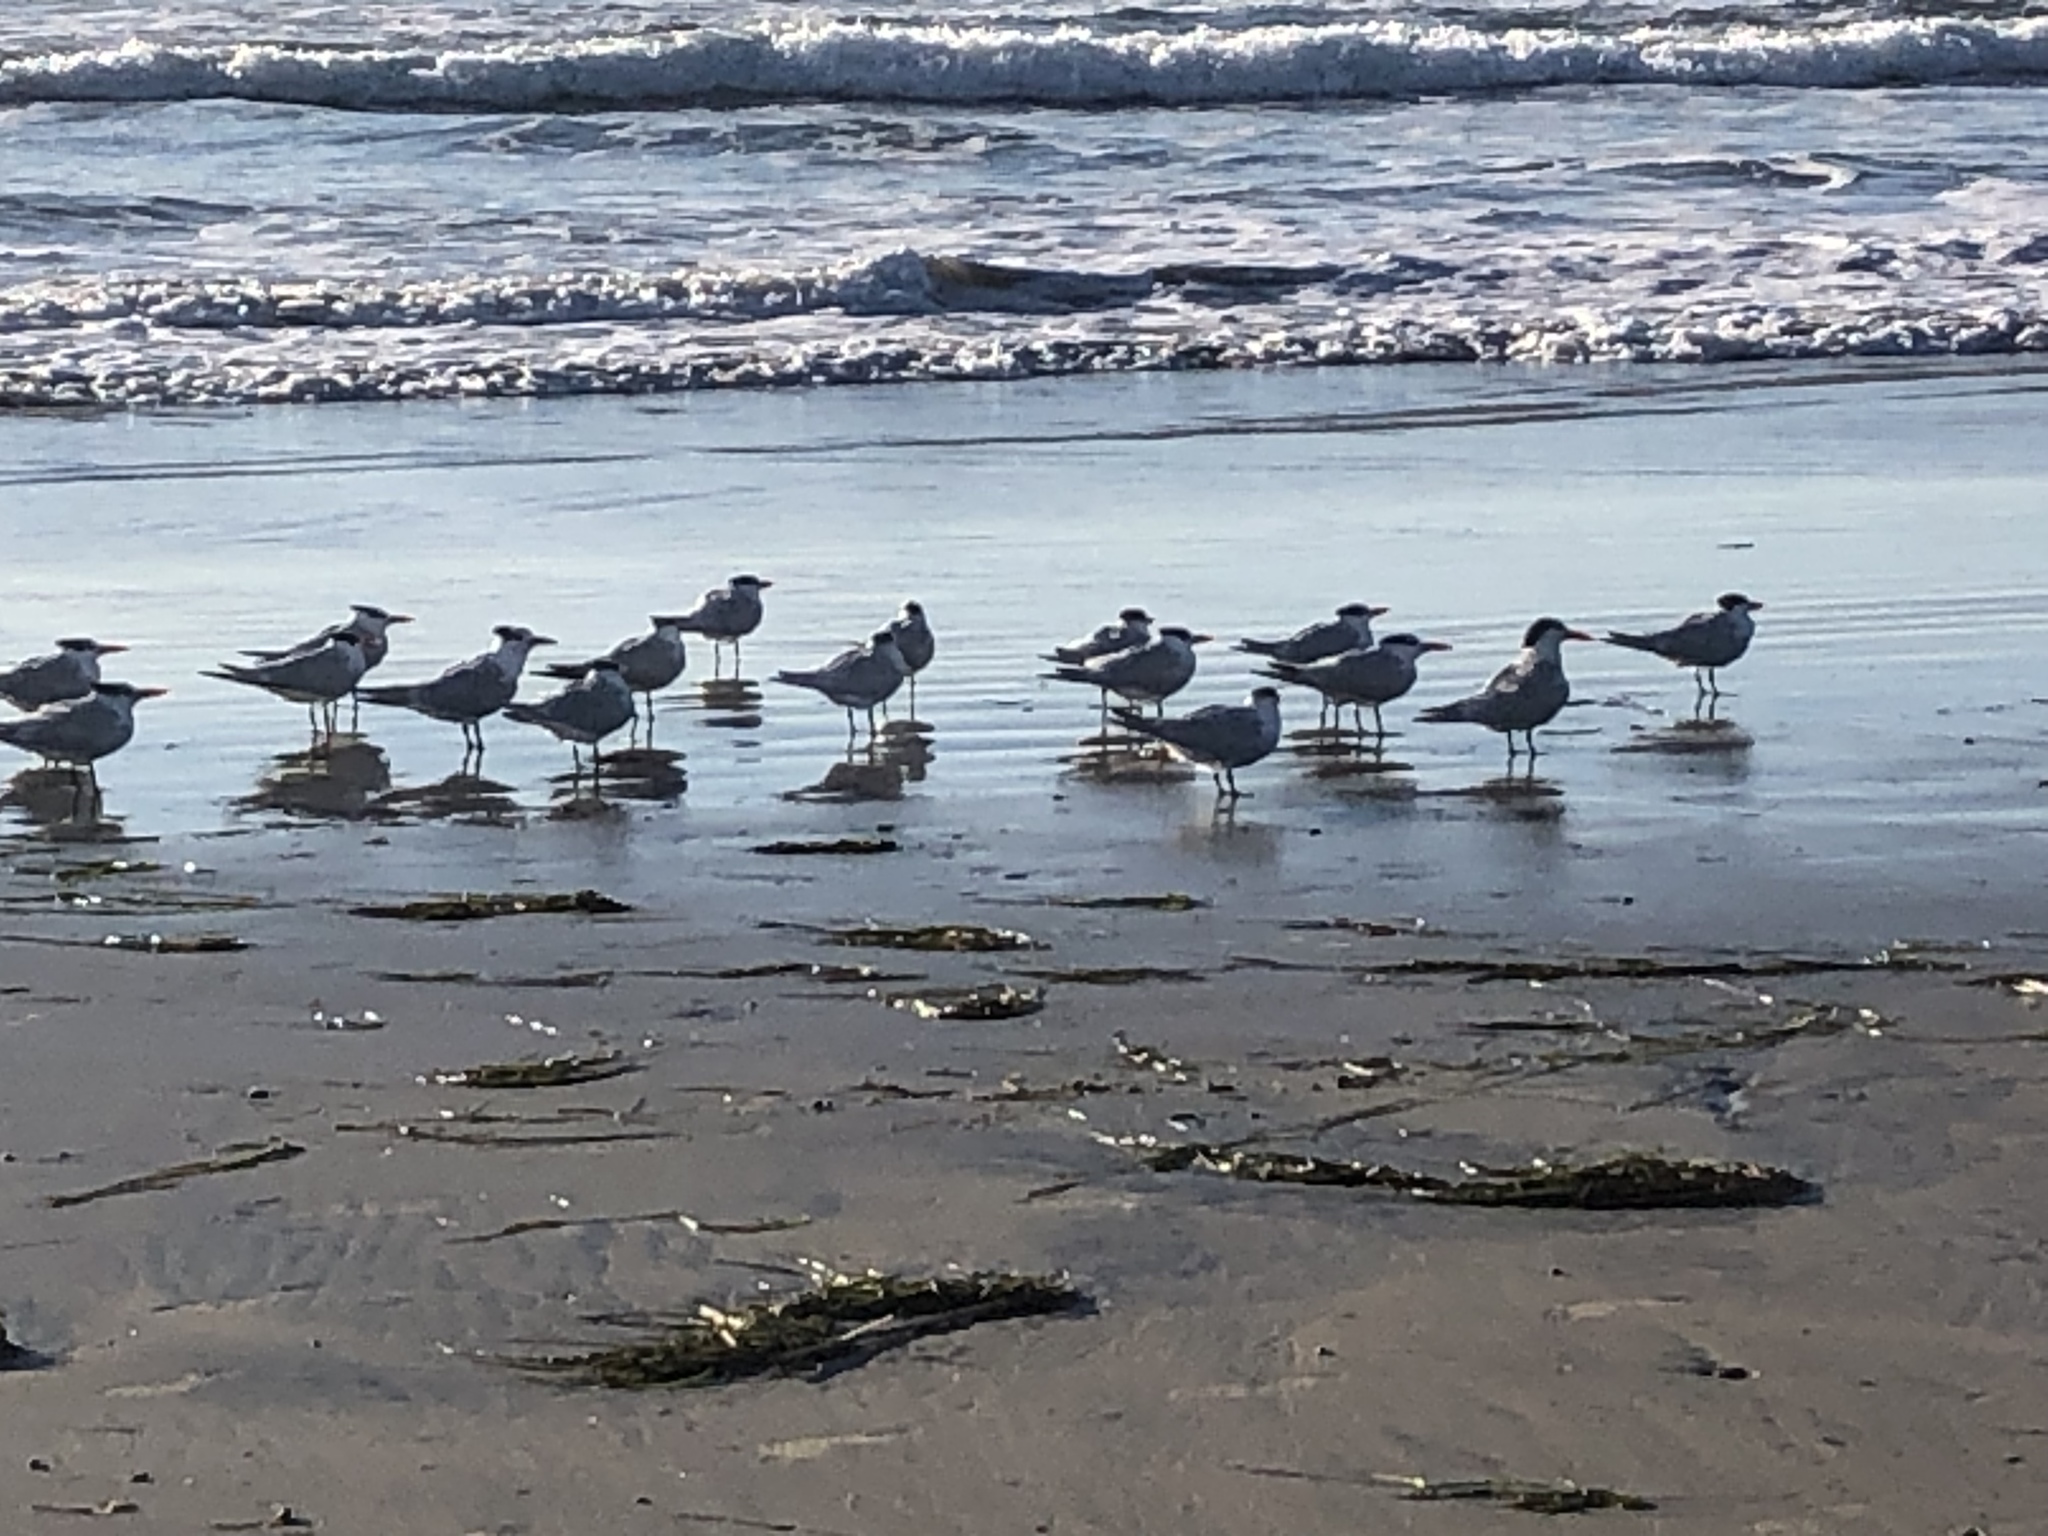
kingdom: Animalia
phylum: Chordata
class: Aves
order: Charadriiformes
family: Laridae
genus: Thalasseus
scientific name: Thalasseus maximus
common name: Royal tern
